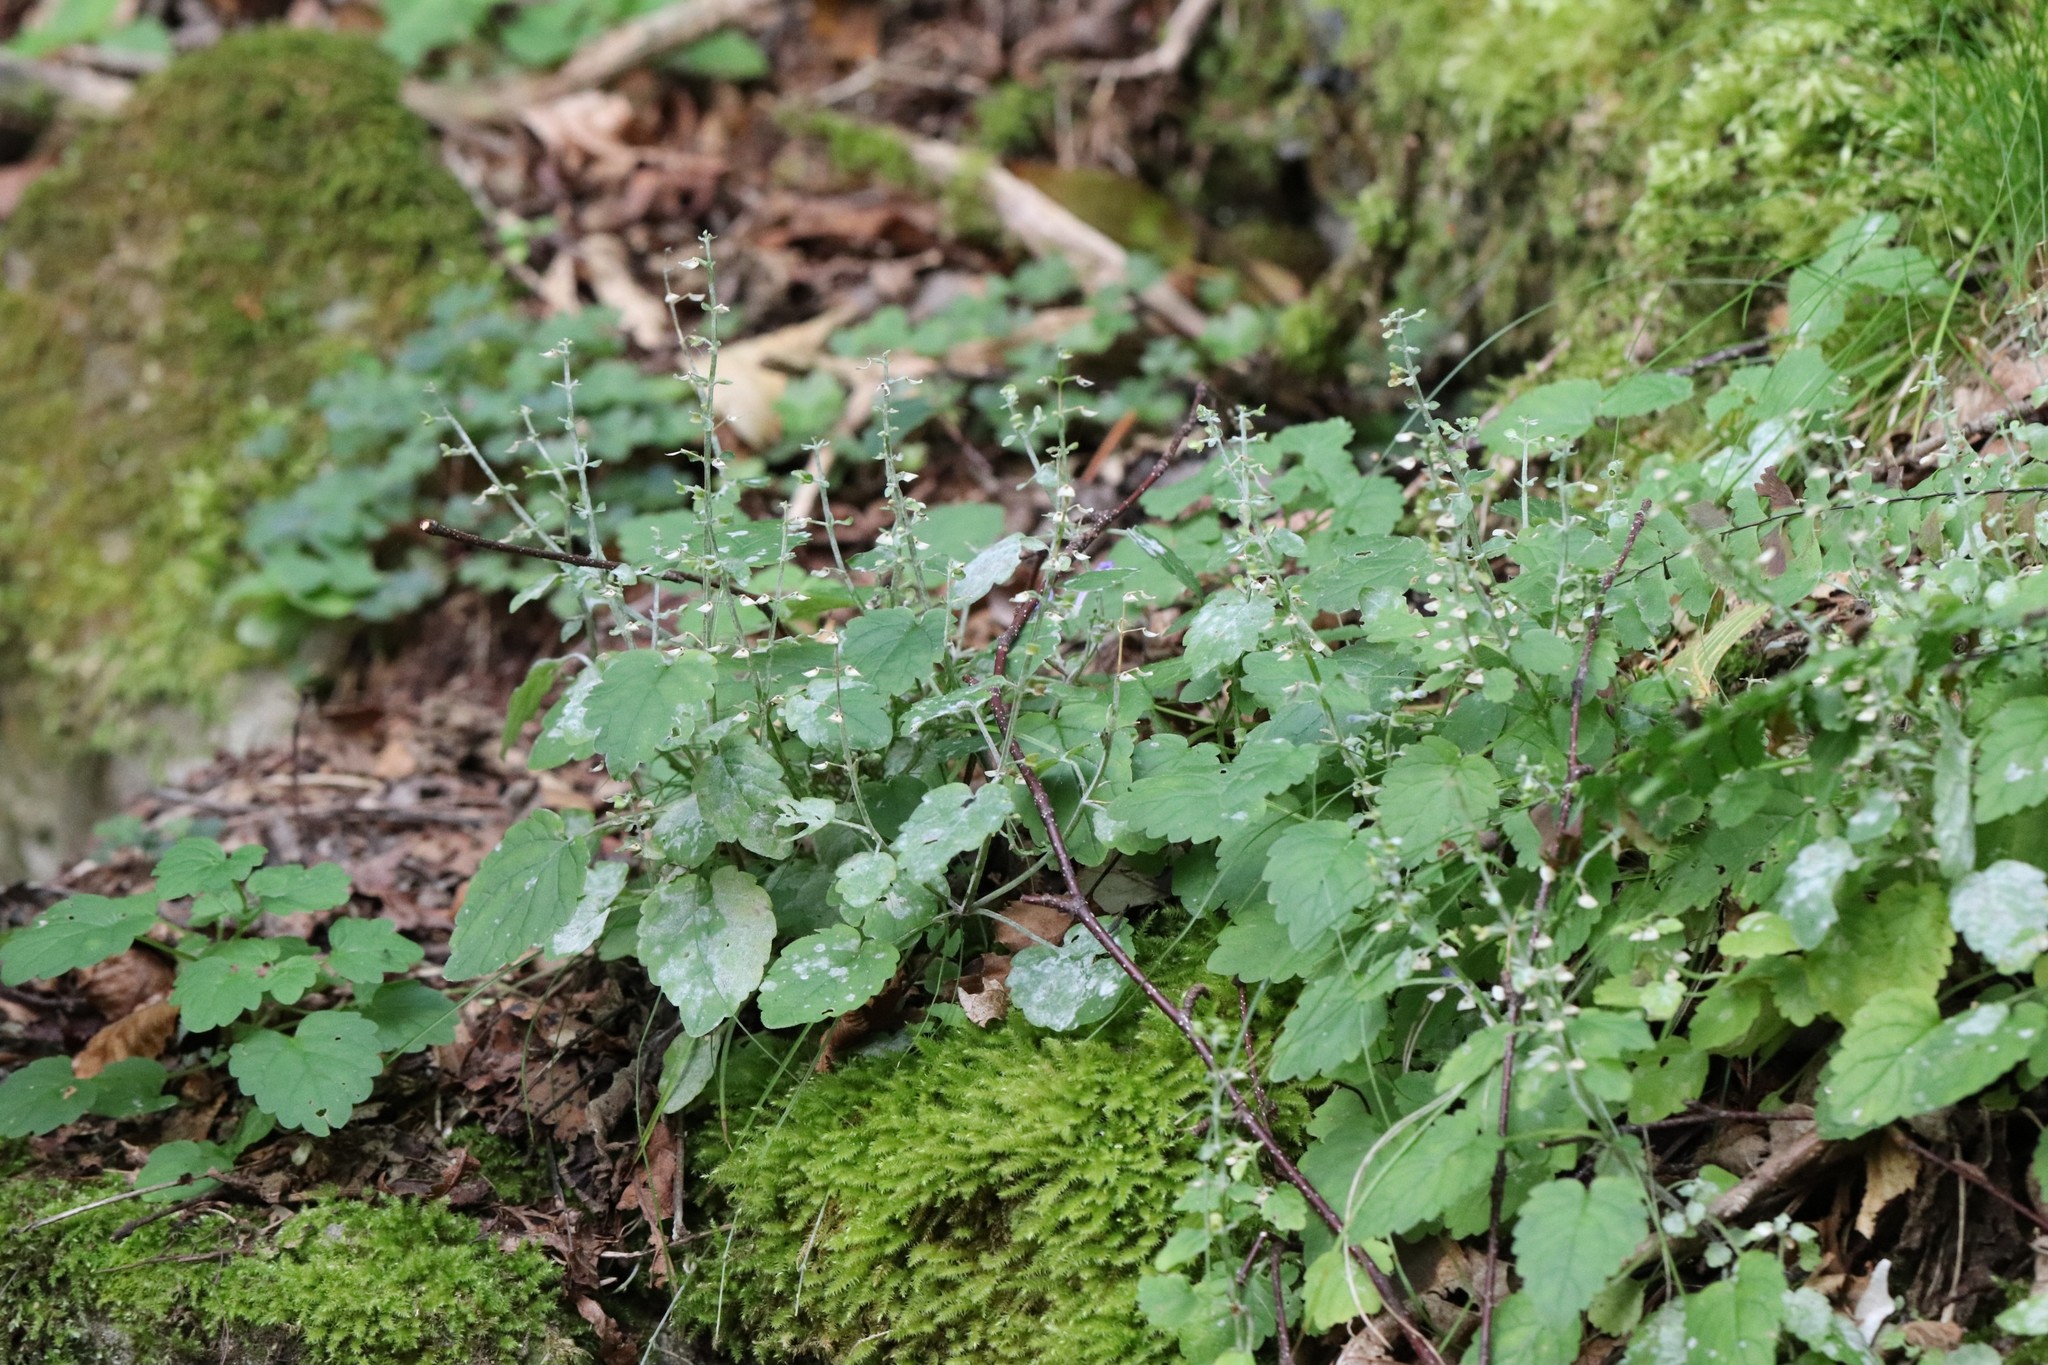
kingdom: Plantae
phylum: Tracheophyta
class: Magnoliopsida
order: Lamiales
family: Lamiaceae
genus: Scutellaria
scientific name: Scutellaria pekinensis
